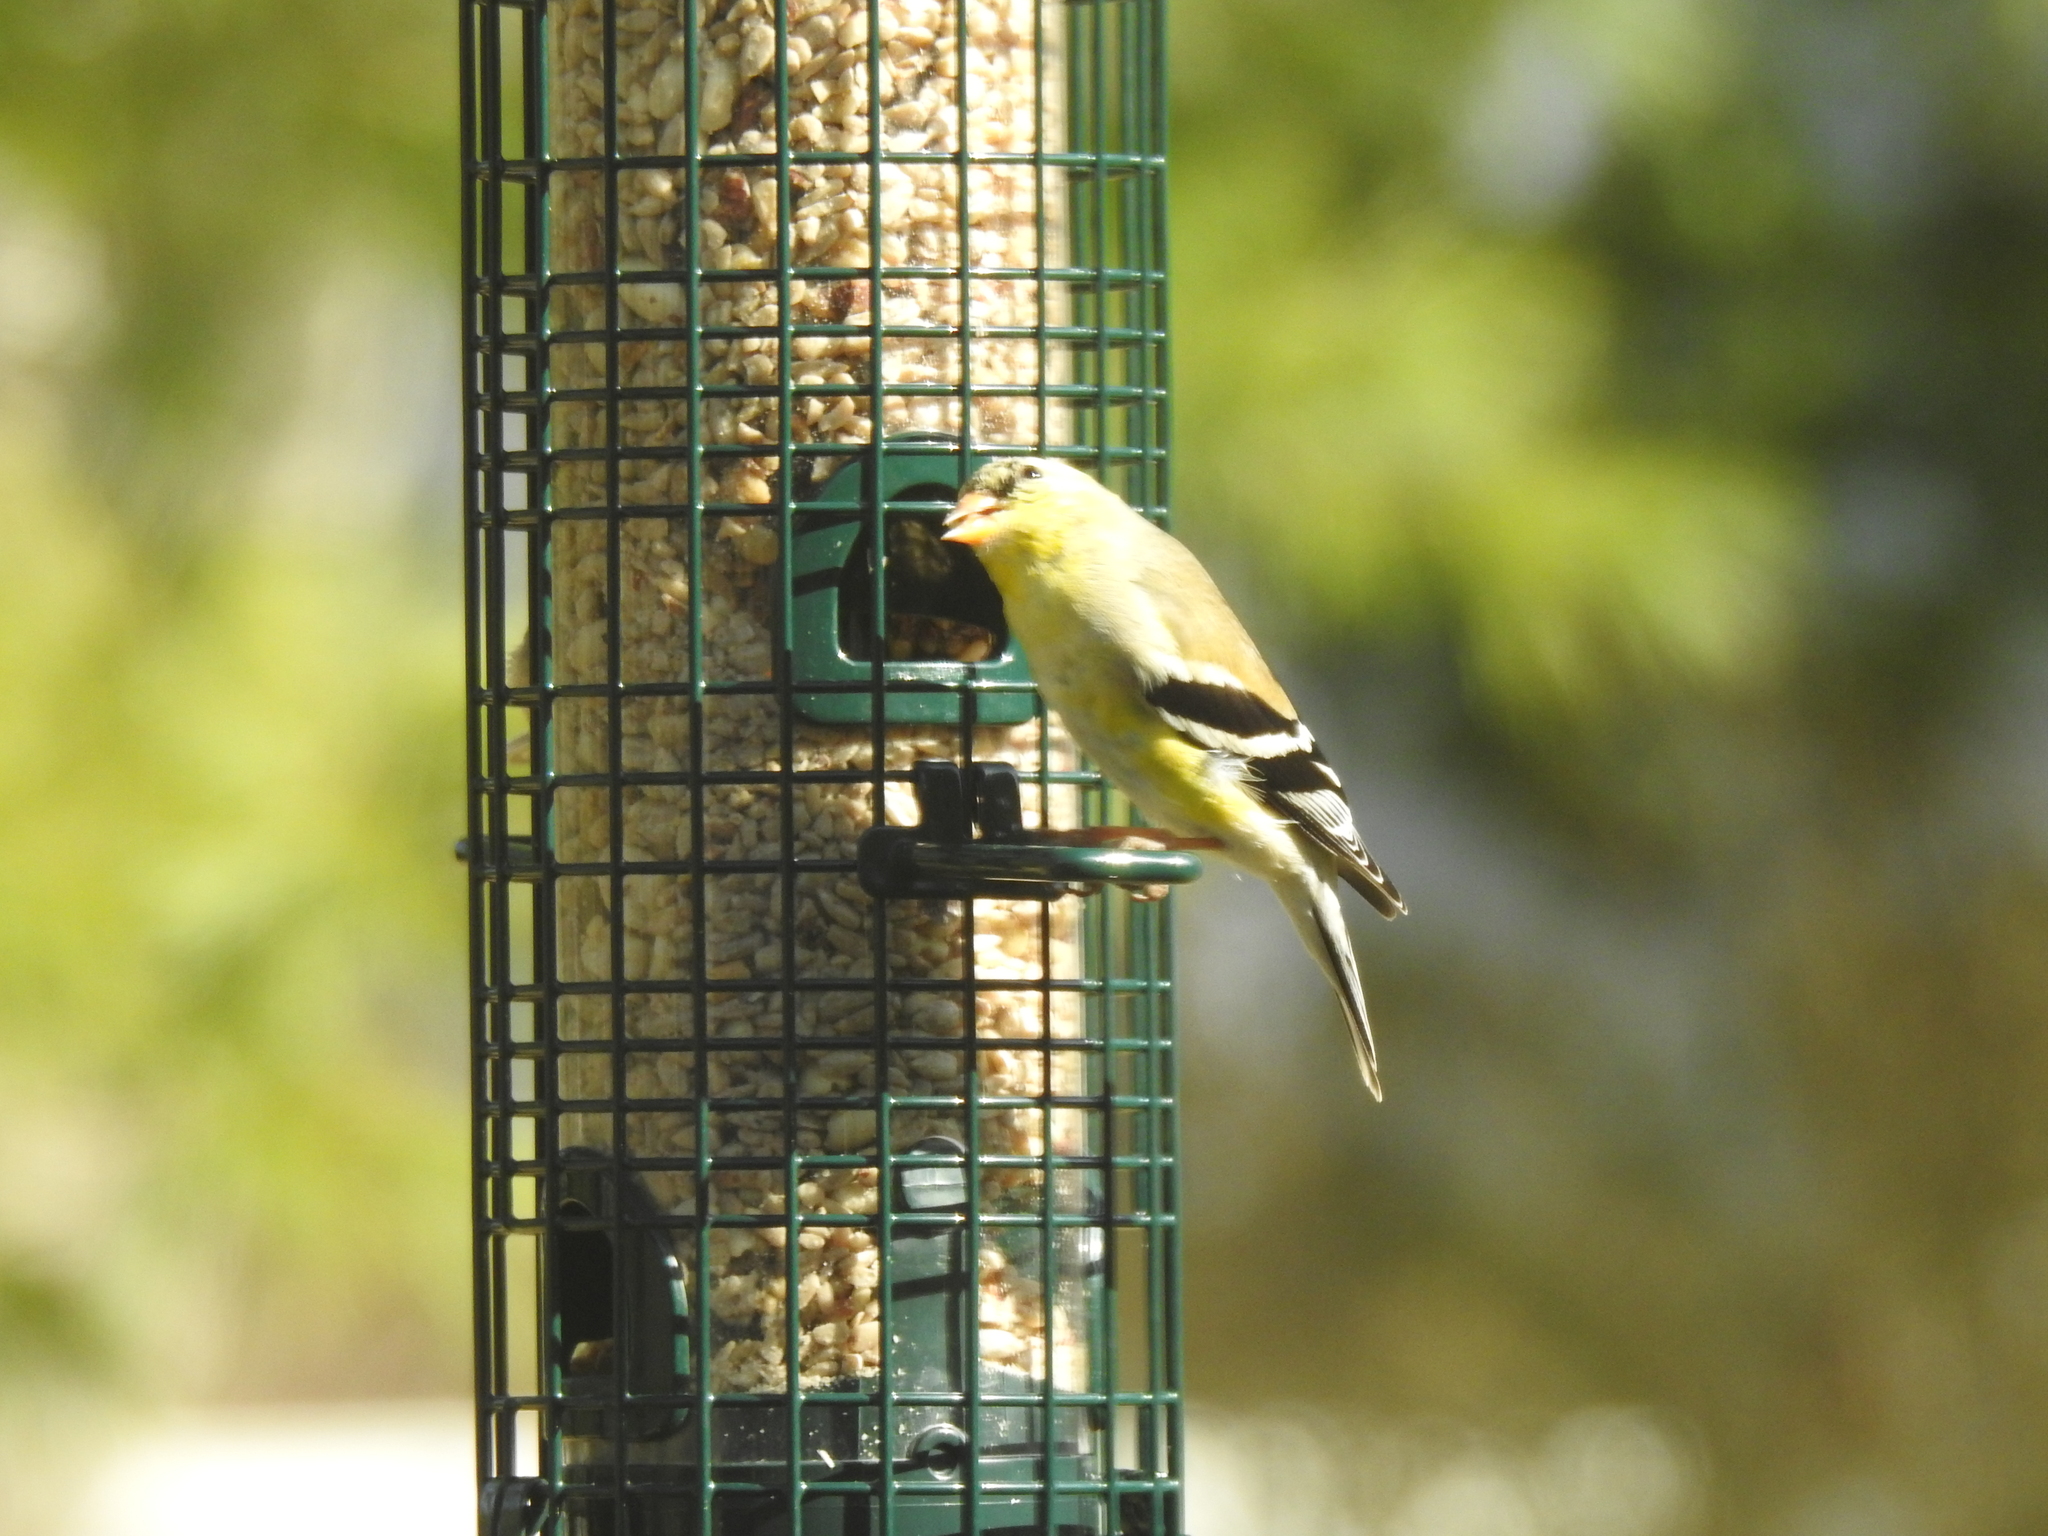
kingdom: Animalia
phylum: Chordata
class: Aves
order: Passeriformes
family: Fringillidae
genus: Spinus
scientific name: Spinus tristis
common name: American goldfinch
